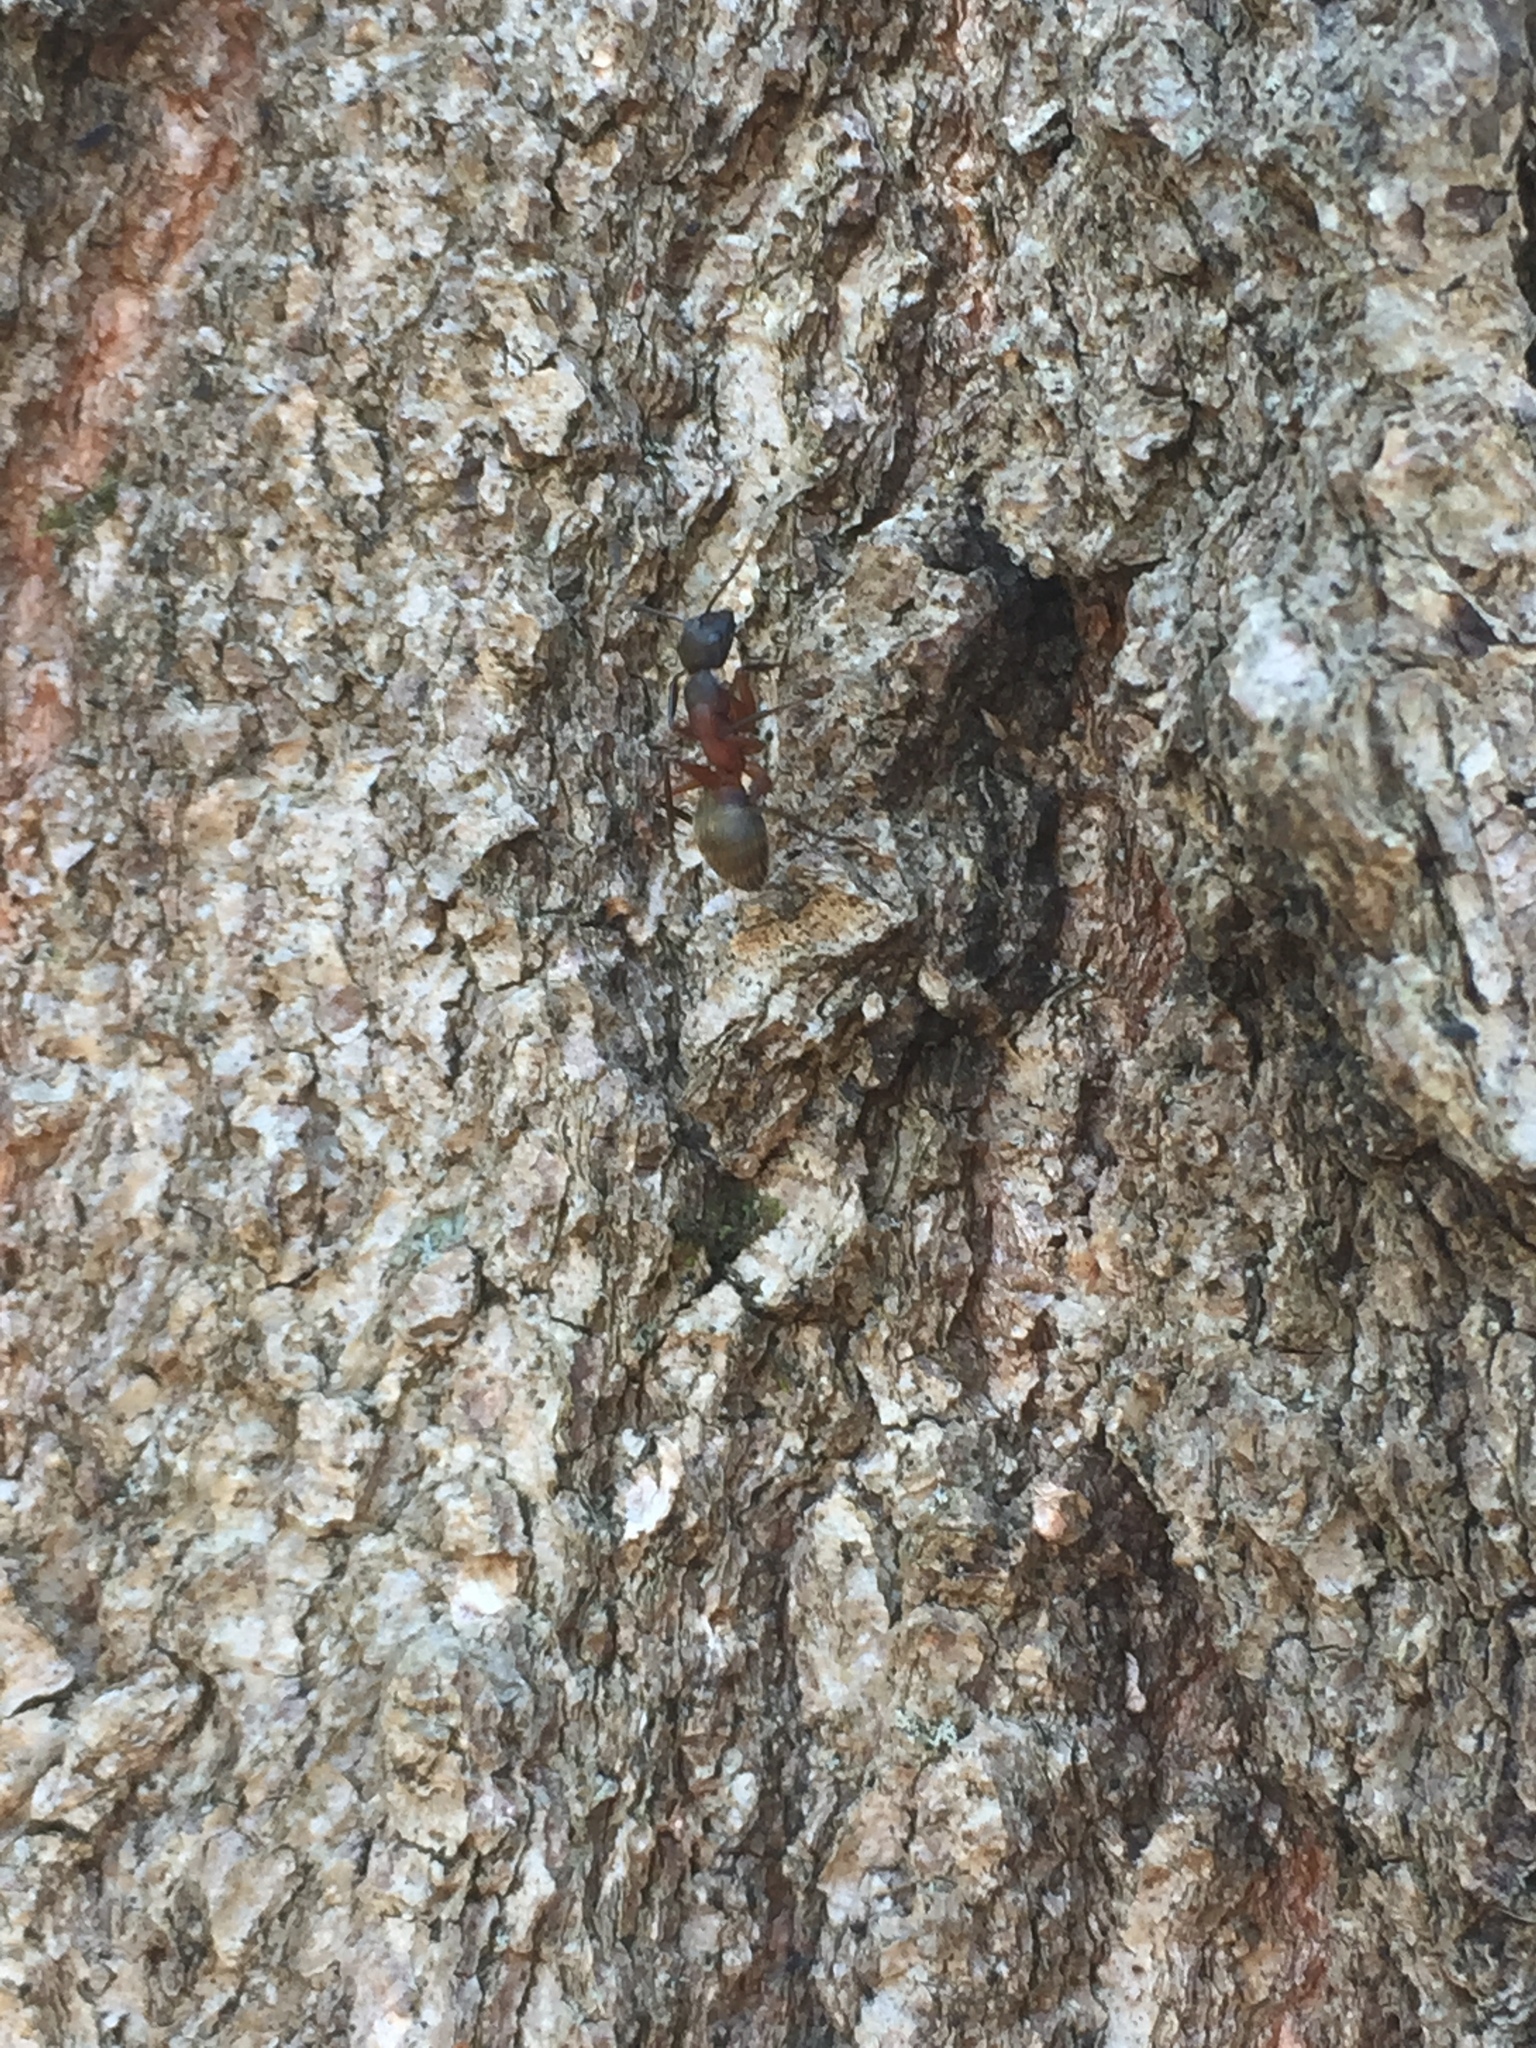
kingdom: Animalia
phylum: Arthropoda
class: Insecta
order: Hymenoptera
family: Formicidae
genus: Camponotus
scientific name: Camponotus chromaiodes
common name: Red carpenter ant
